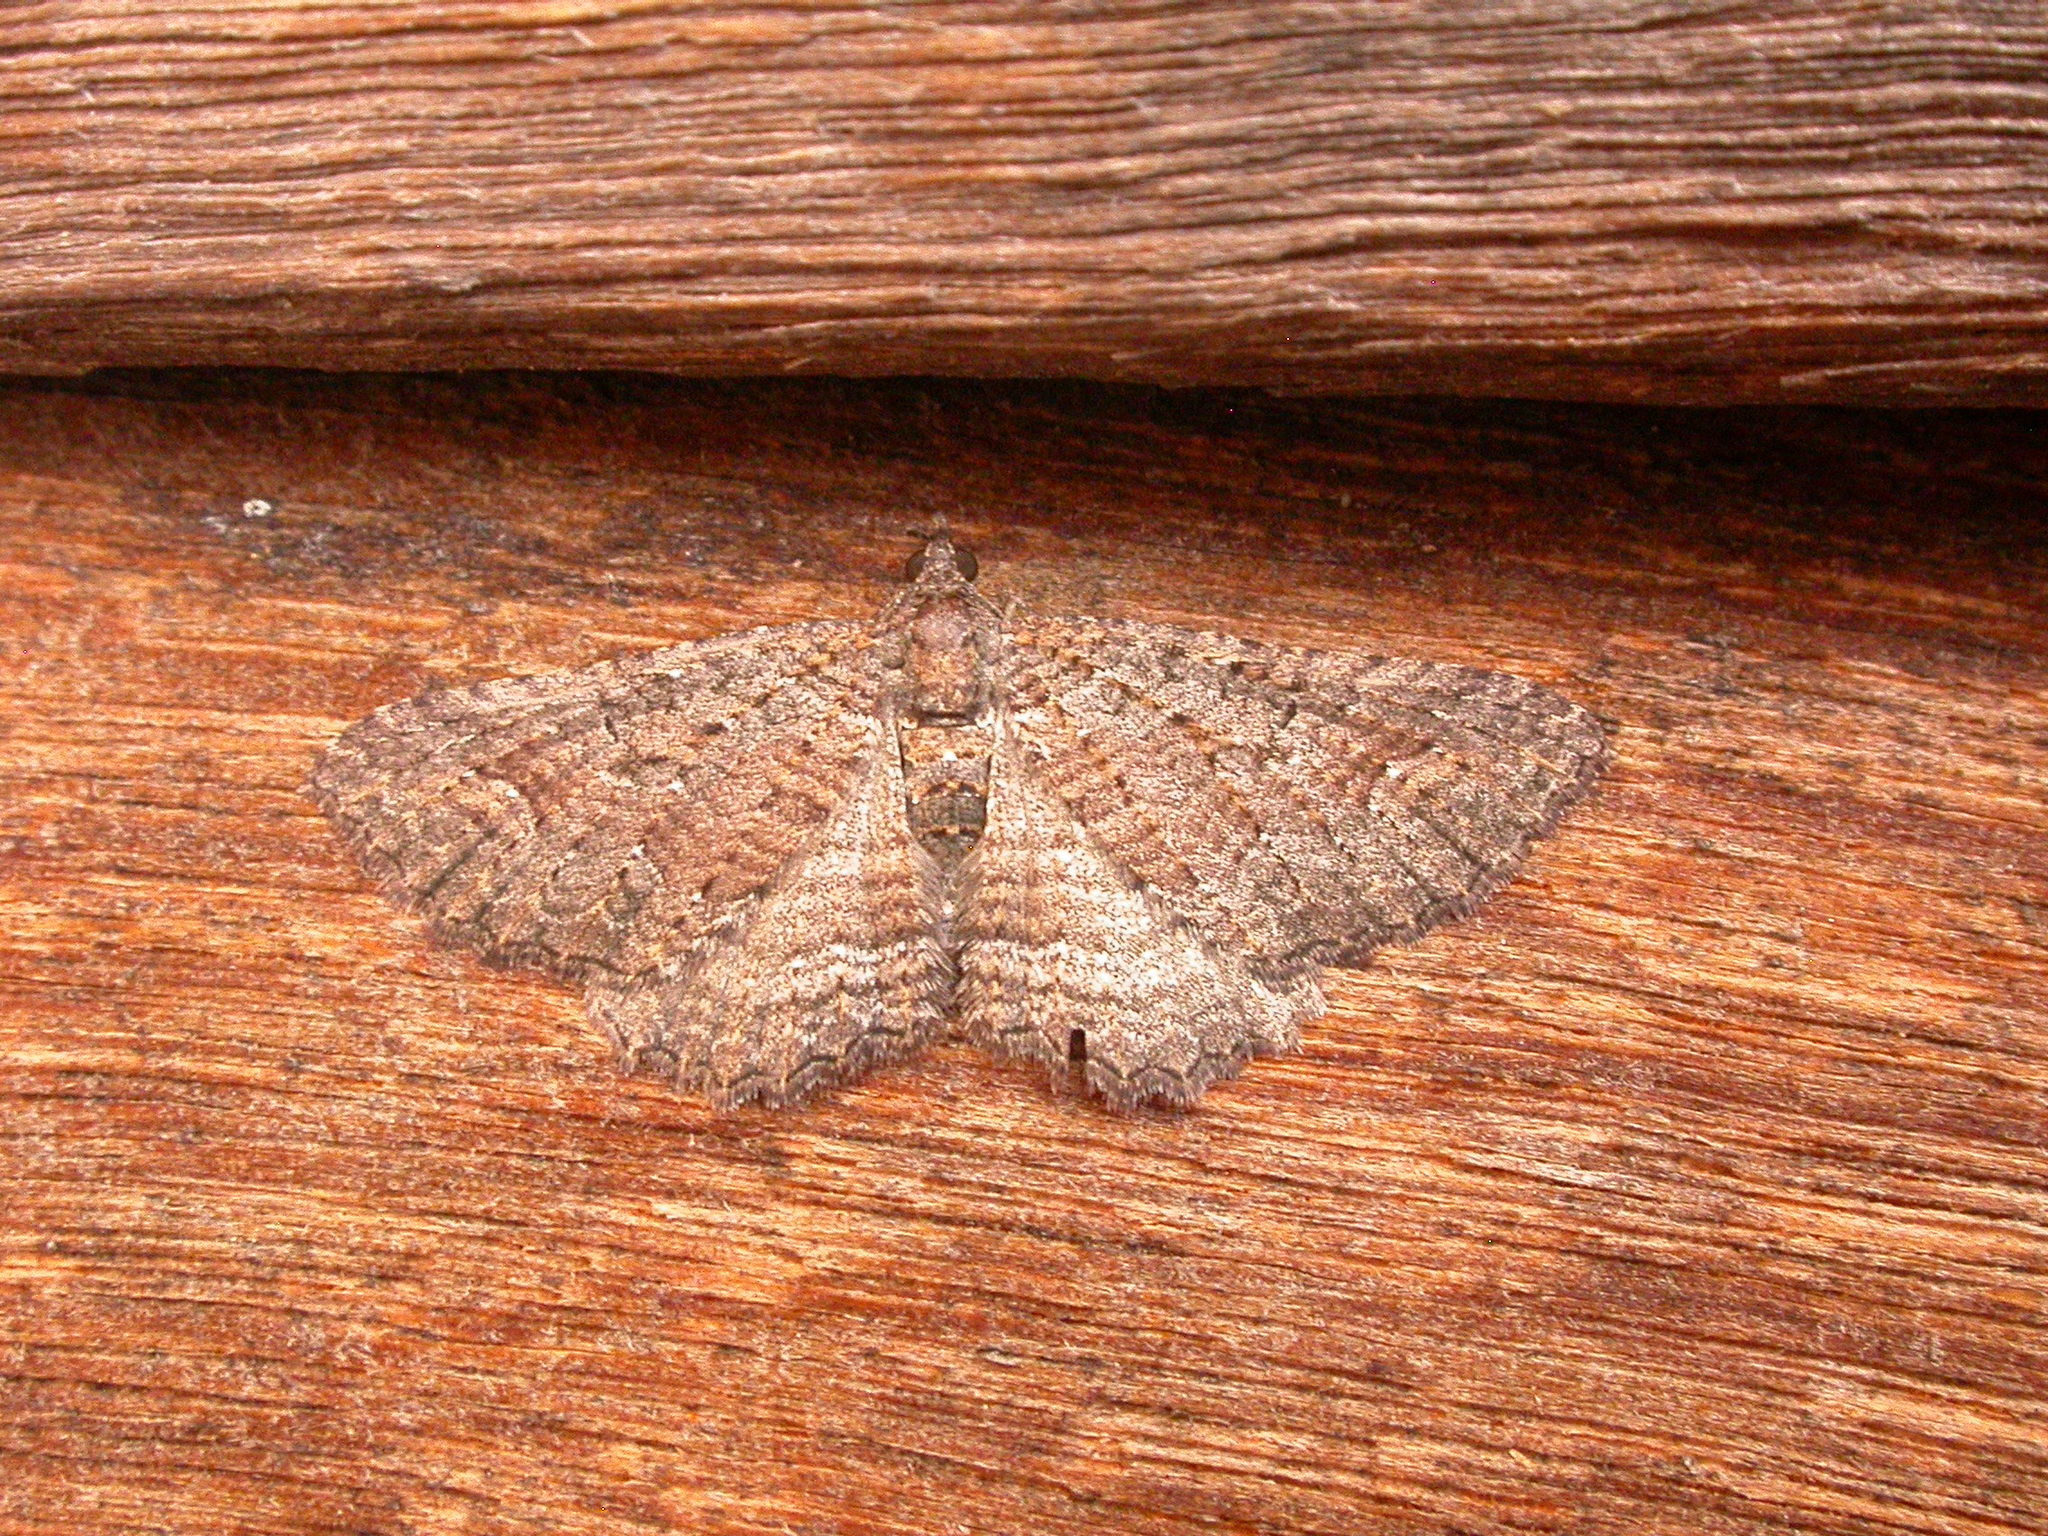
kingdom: Animalia
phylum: Arthropoda
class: Insecta
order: Lepidoptera
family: Geometridae
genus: Xanthorhoe
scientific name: Xanthorhoe xerodes
